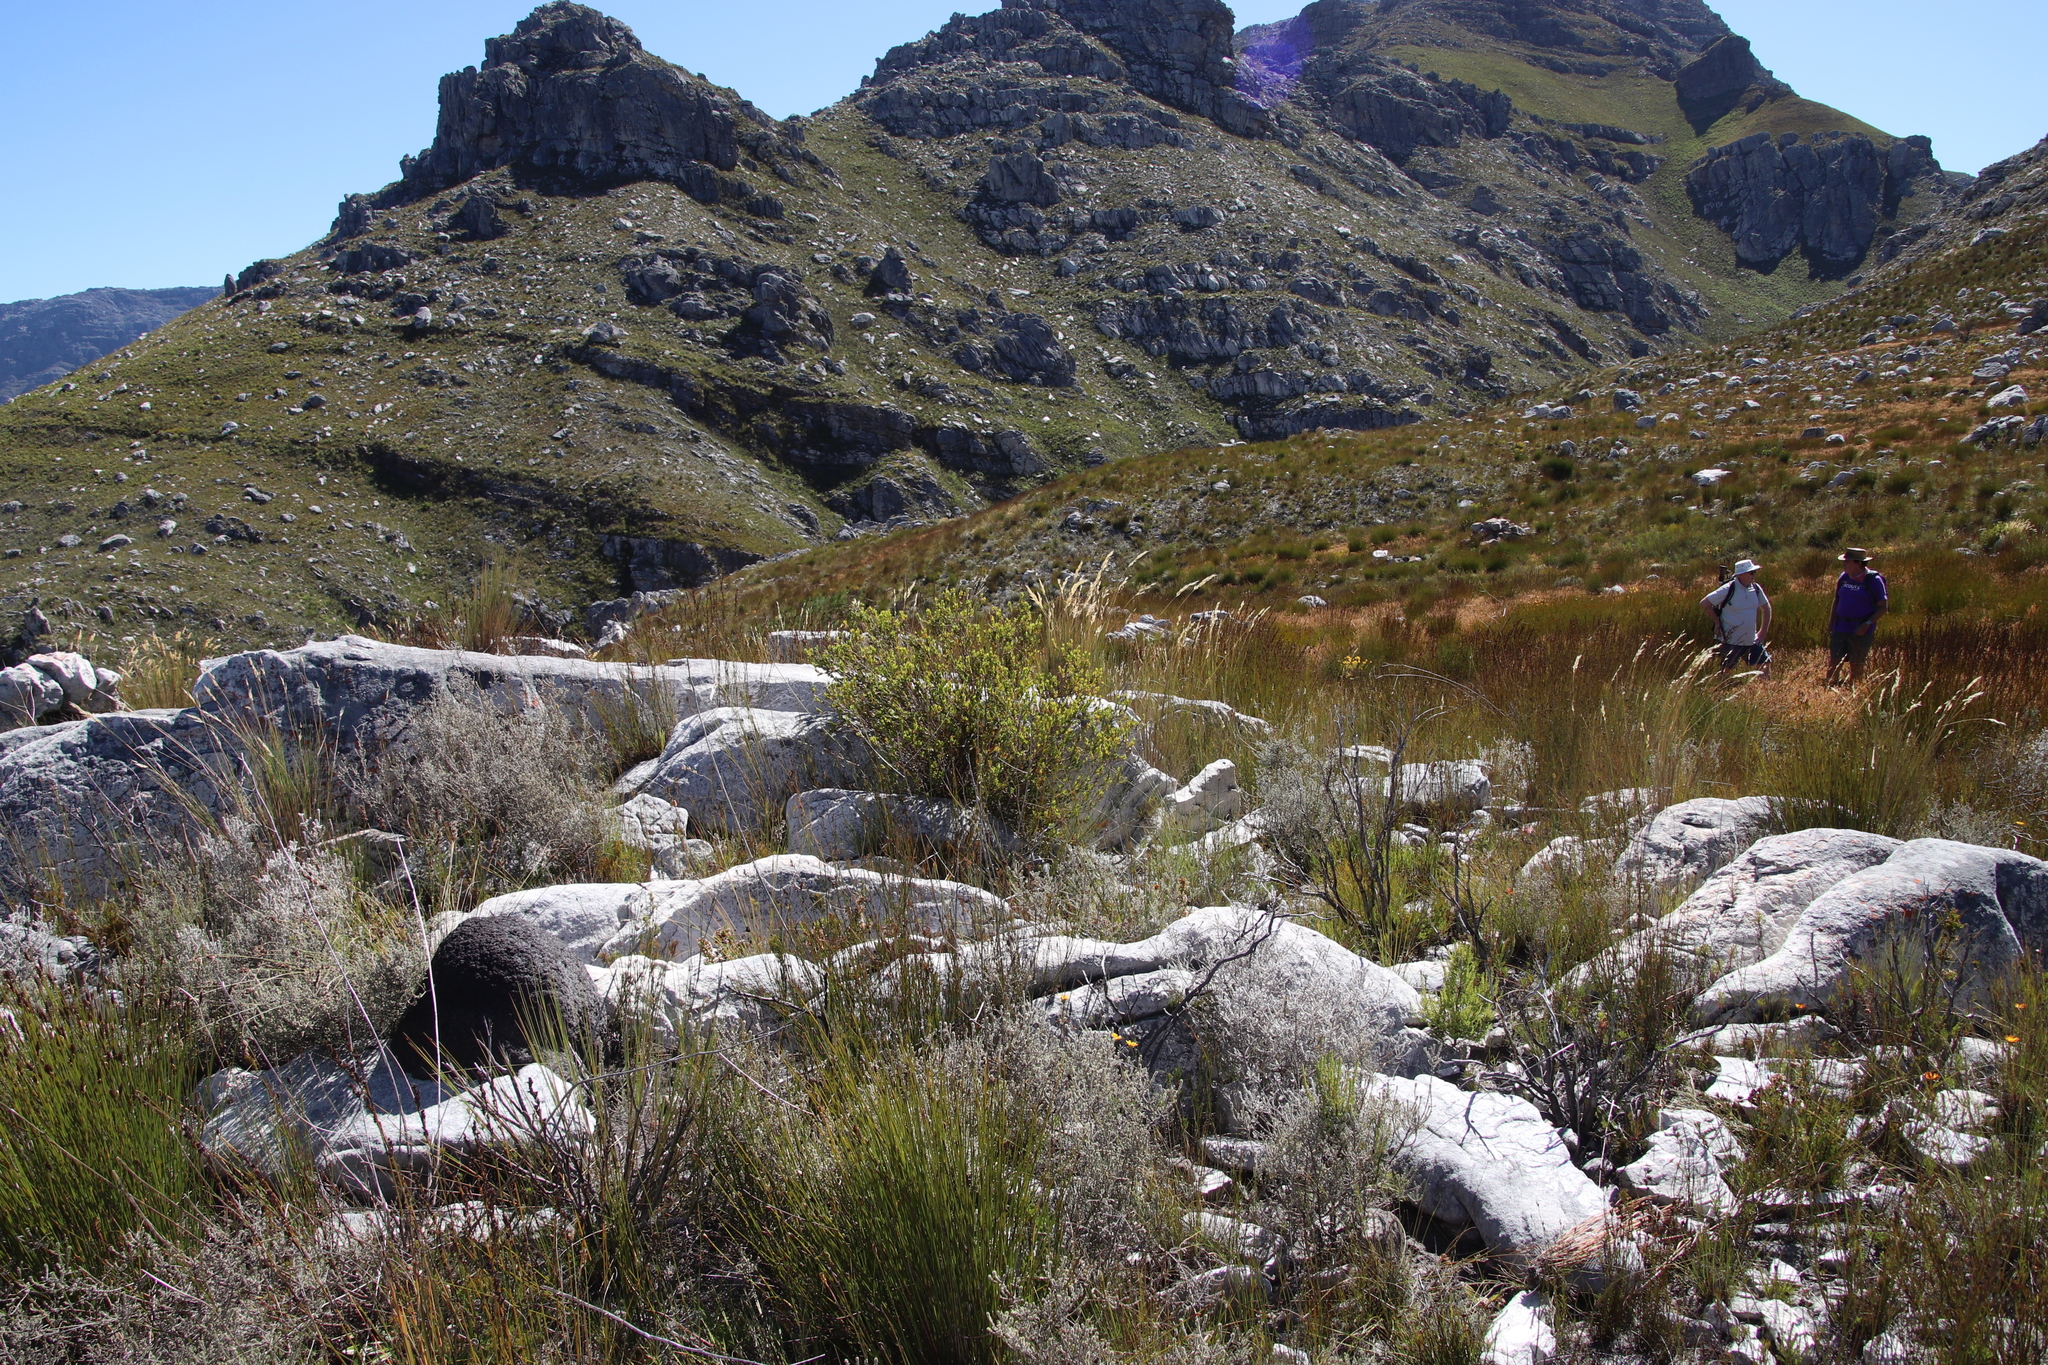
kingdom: Plantae
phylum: Tracheophyta
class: Magnoliopsida
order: Ericales
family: Ebenaceae
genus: Diospyros
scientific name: Diospyros glabra
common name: Fynbos star apple
